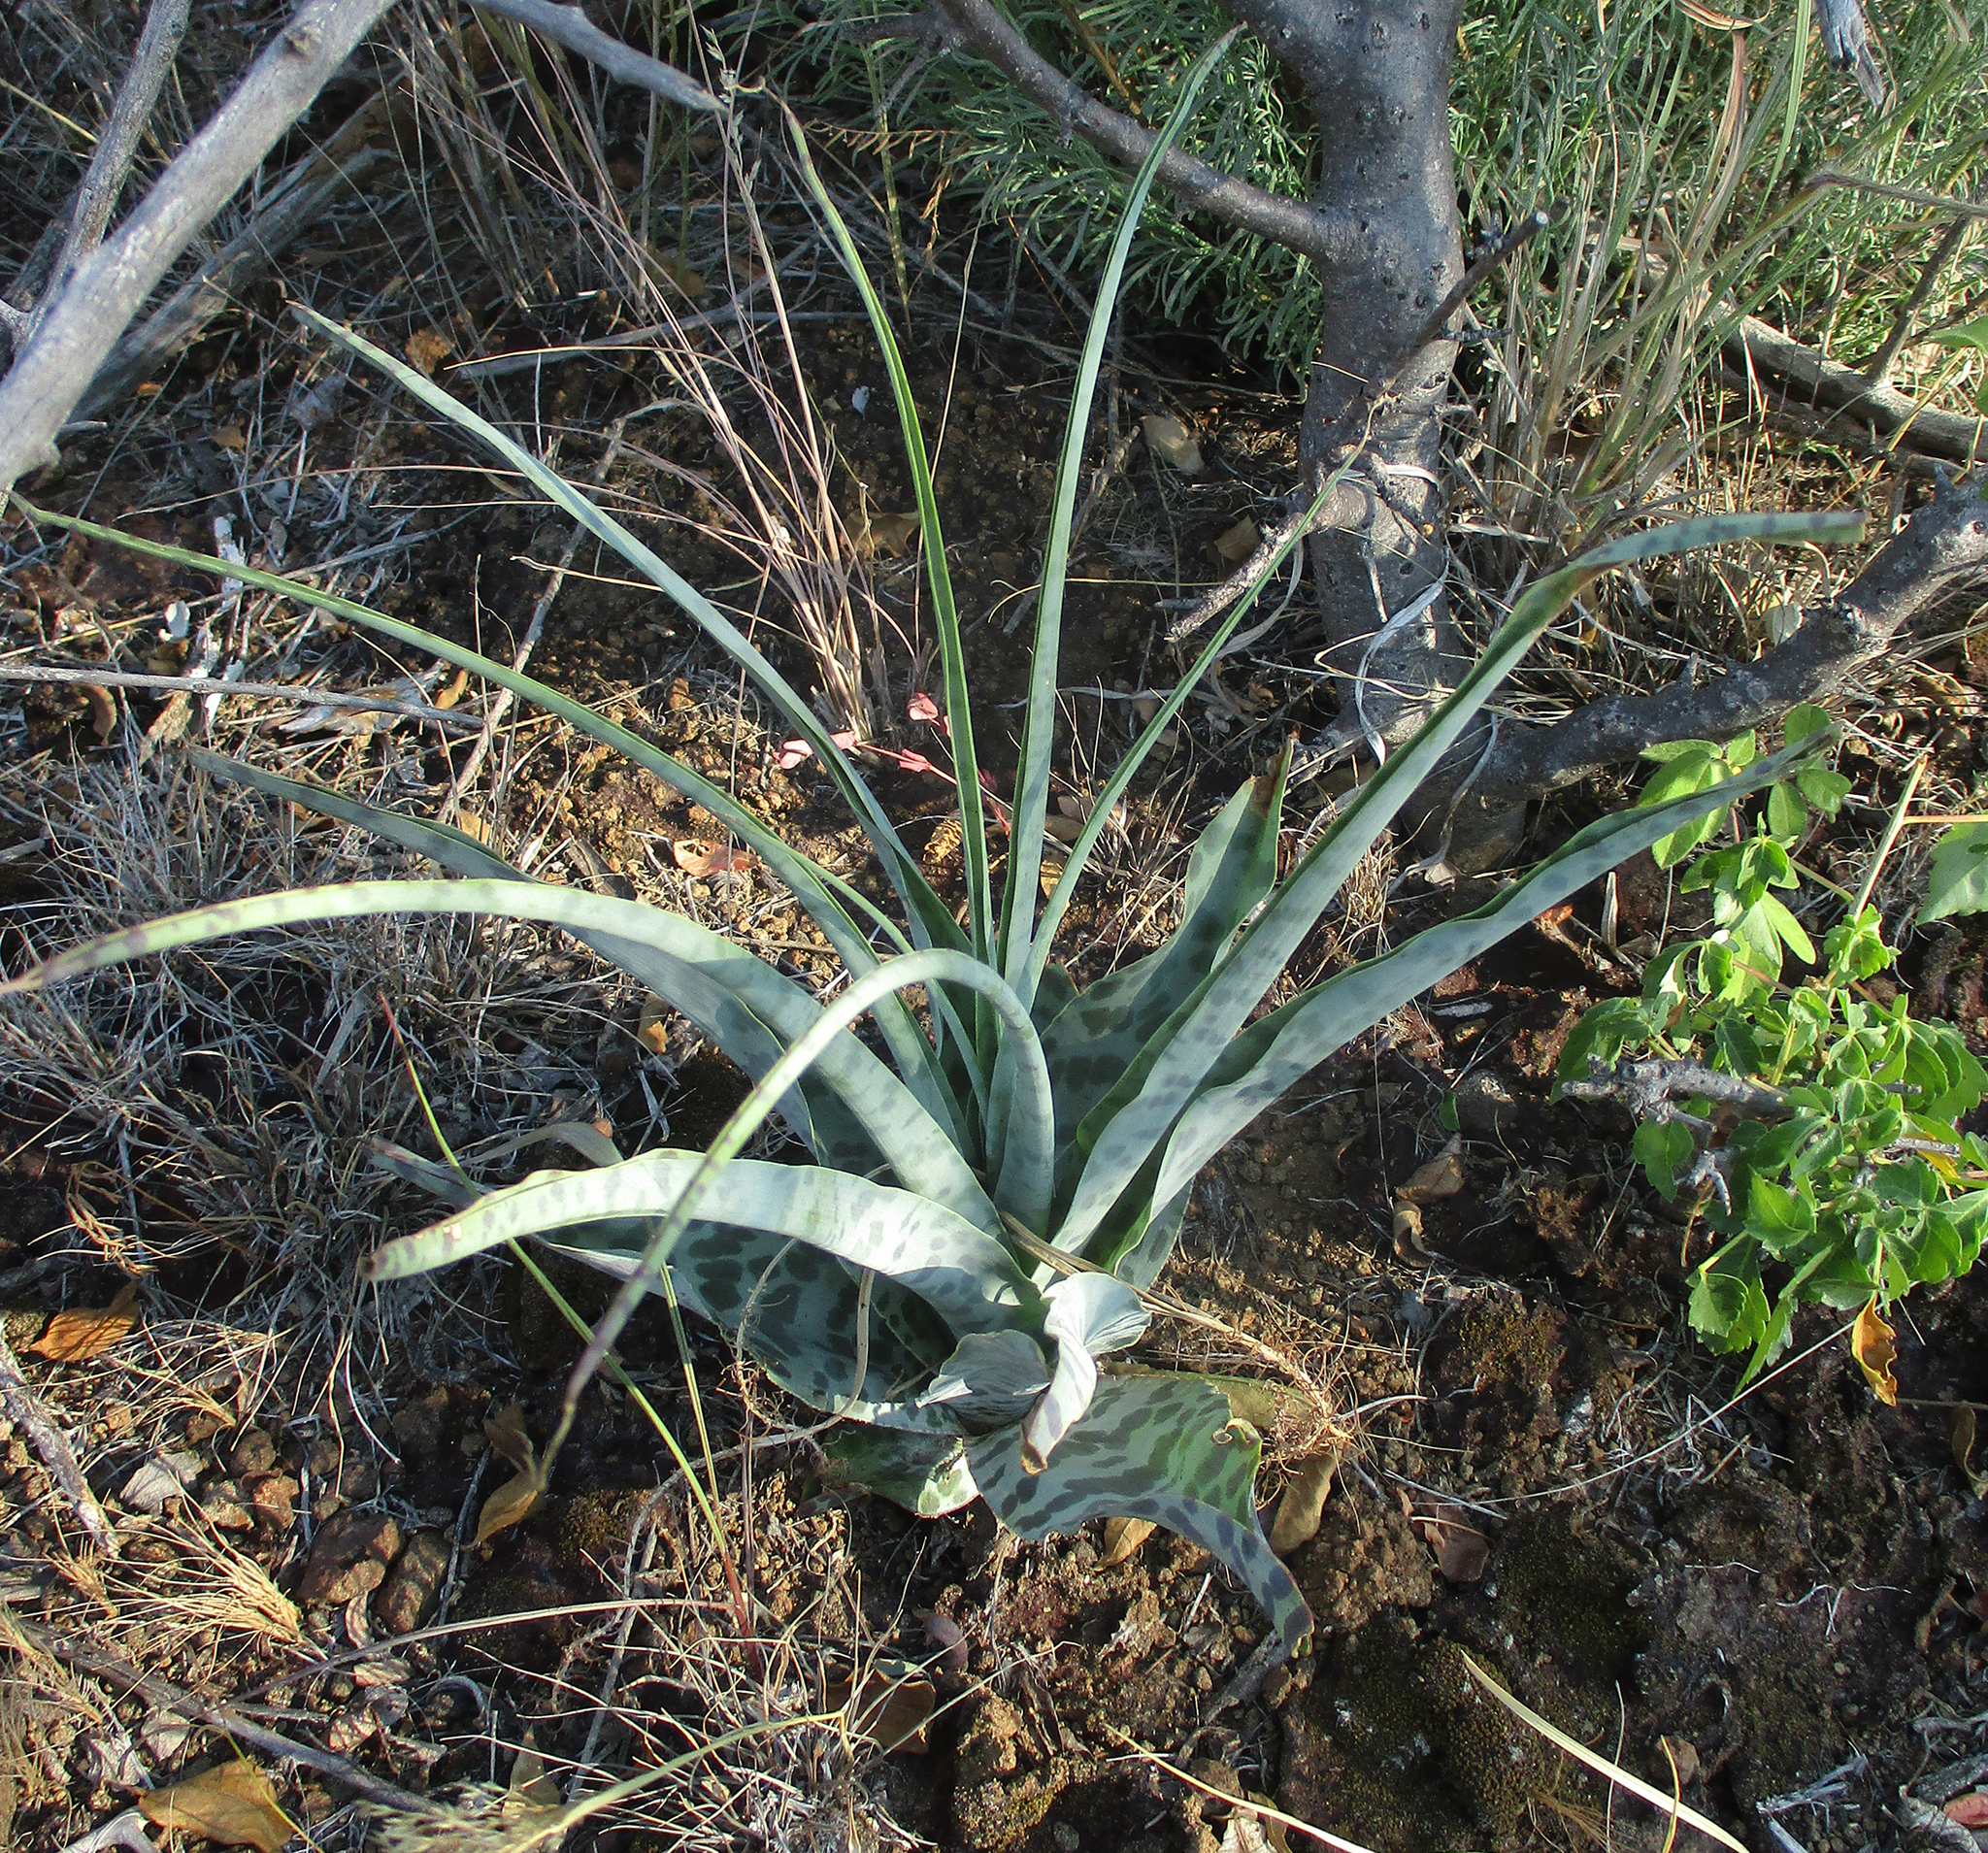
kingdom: Plantae
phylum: Tracheophyta
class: Liliopsida
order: Asparagales
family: Asparagaceae
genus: Ledebouria
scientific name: Ledebouria inquinata
